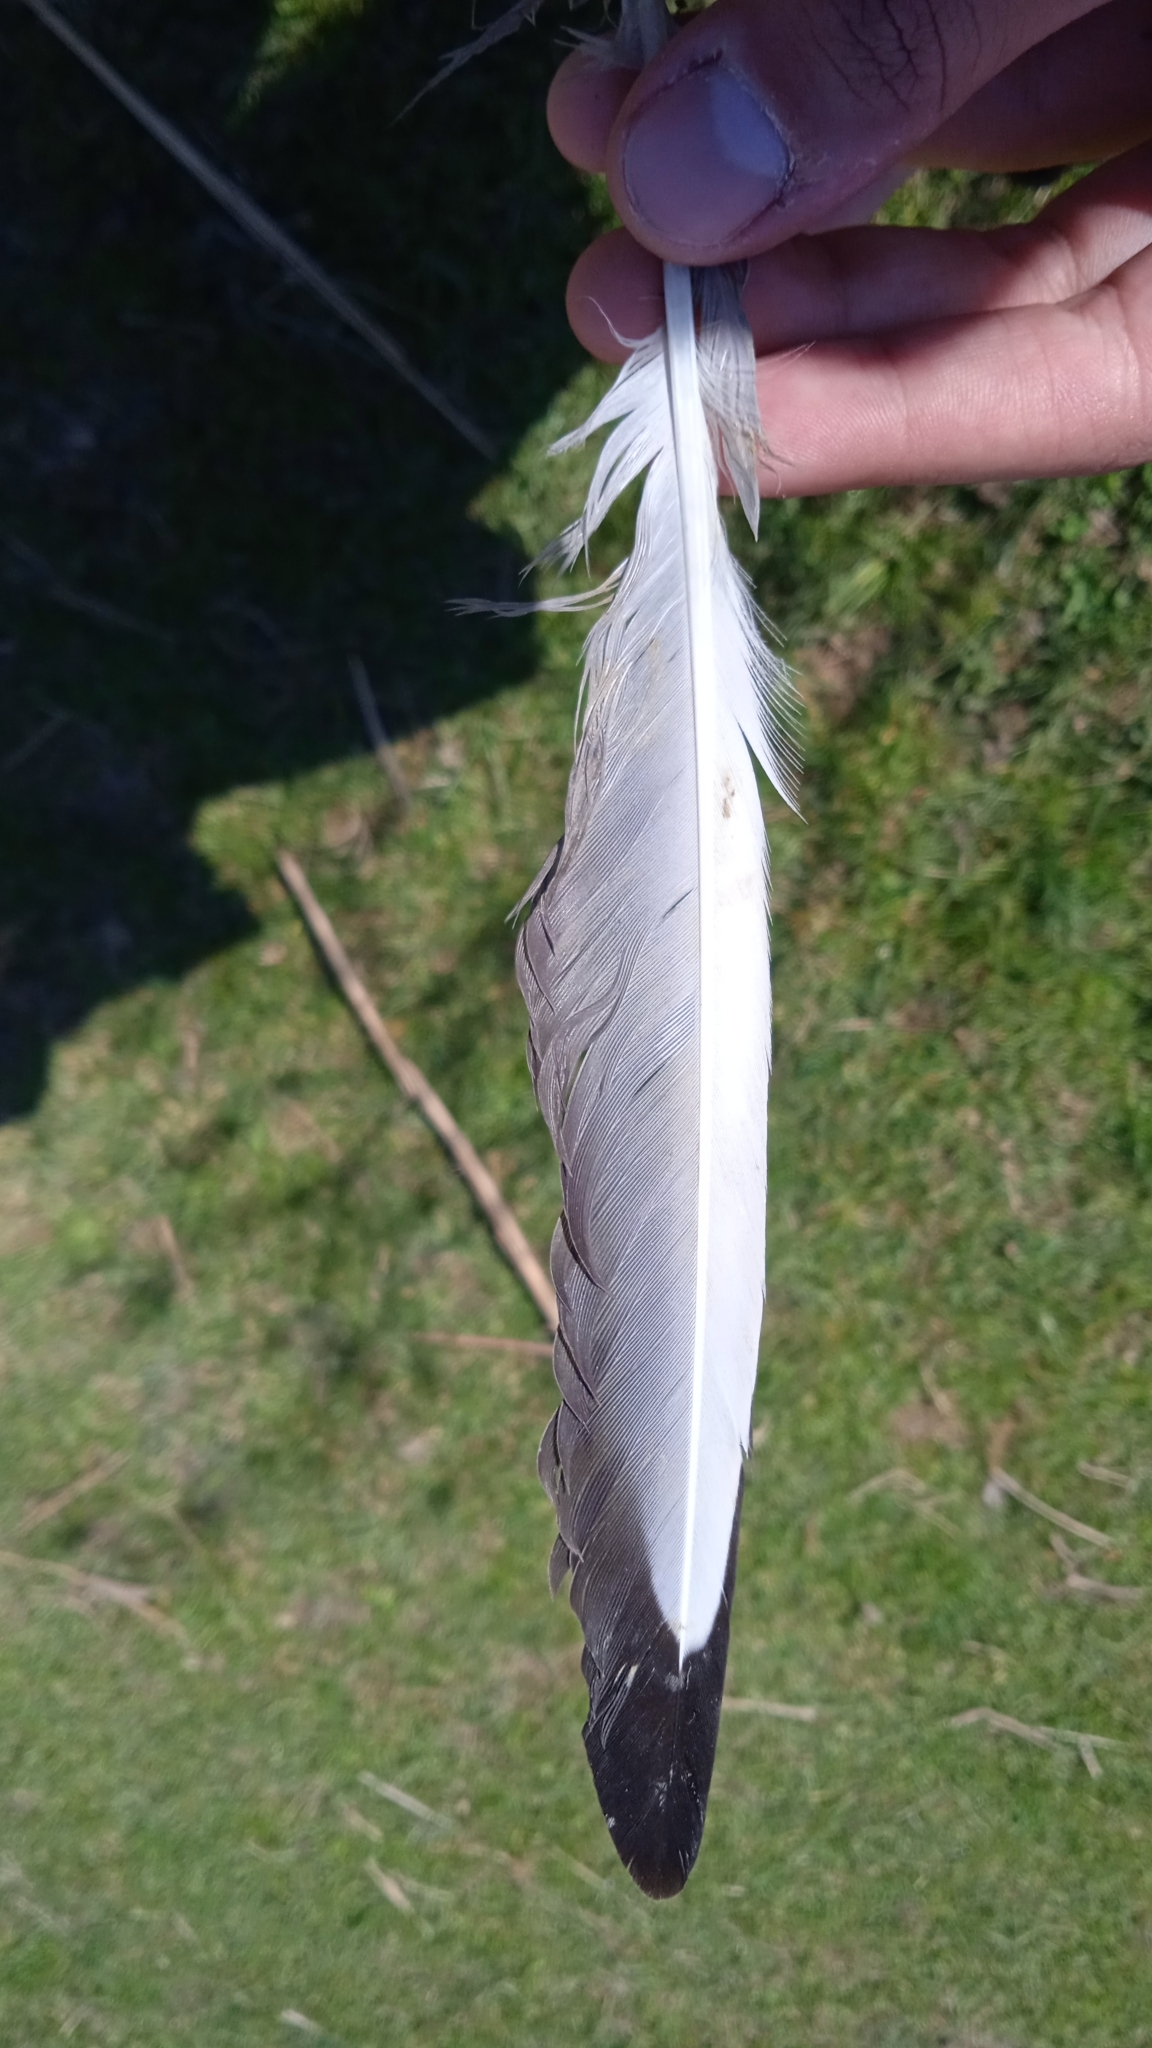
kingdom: Animalia
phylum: Chordata
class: Aves
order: Charadriiformes
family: Laridae
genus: Chroicocephalus
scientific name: Chroicocephalus ridibundus
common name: Black-headed gull
